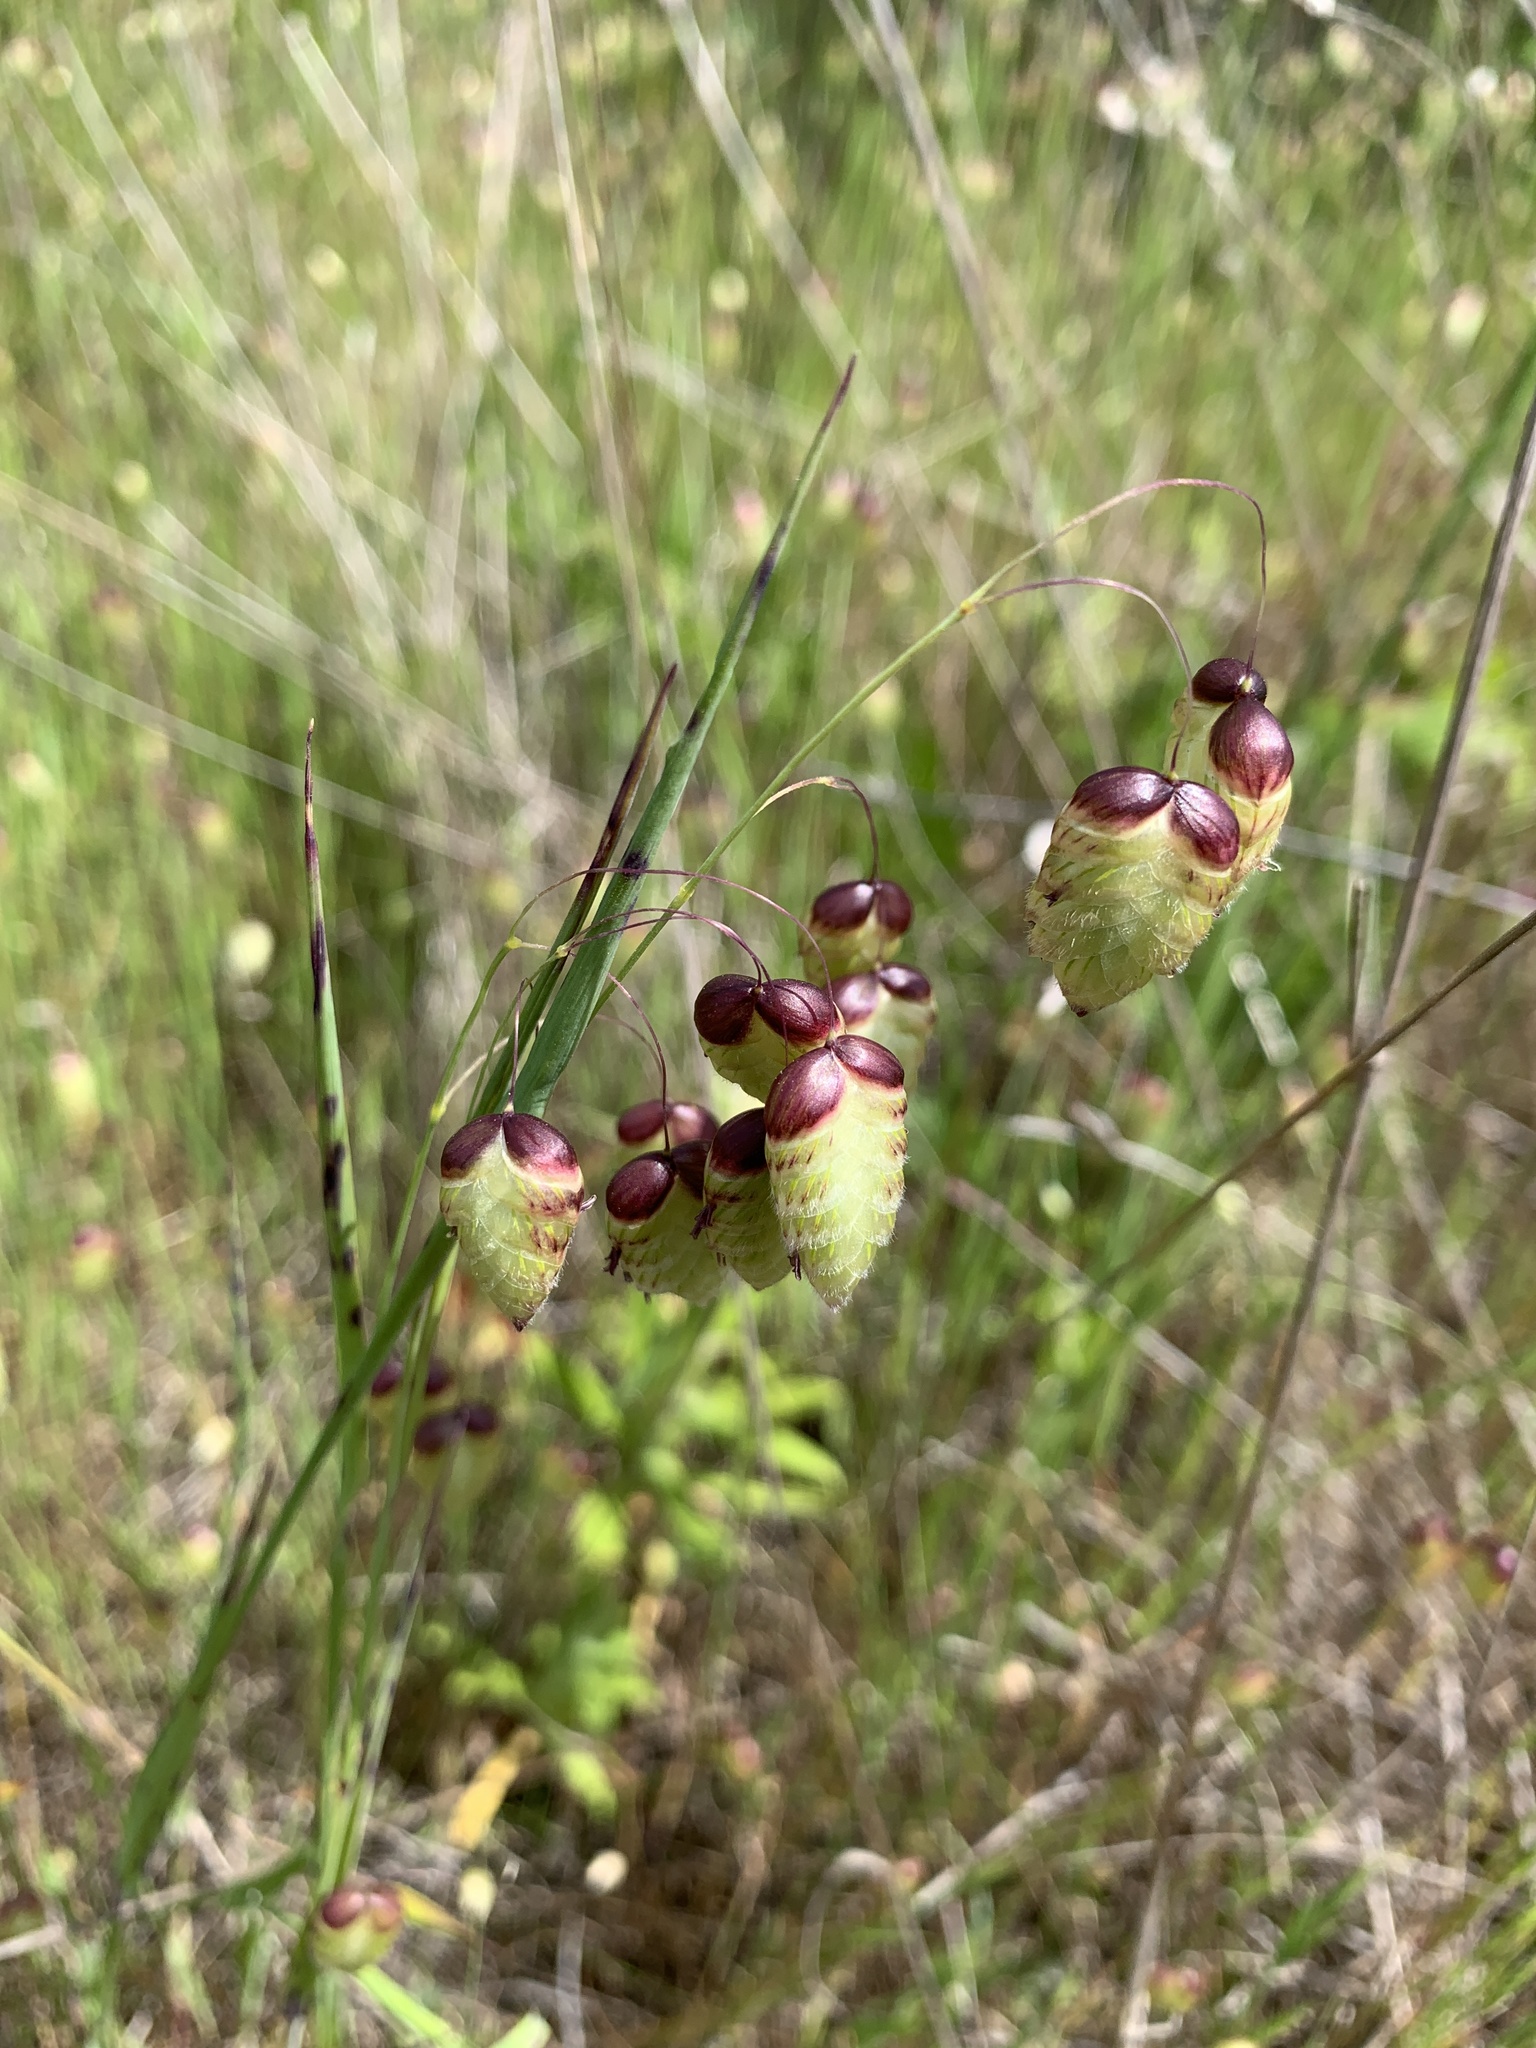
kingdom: Plantae
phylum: Tracheophyta
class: Liliopsida
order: Poales
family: Poaceae
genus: Briza
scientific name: Briza maxima
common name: Big quakinggrass
